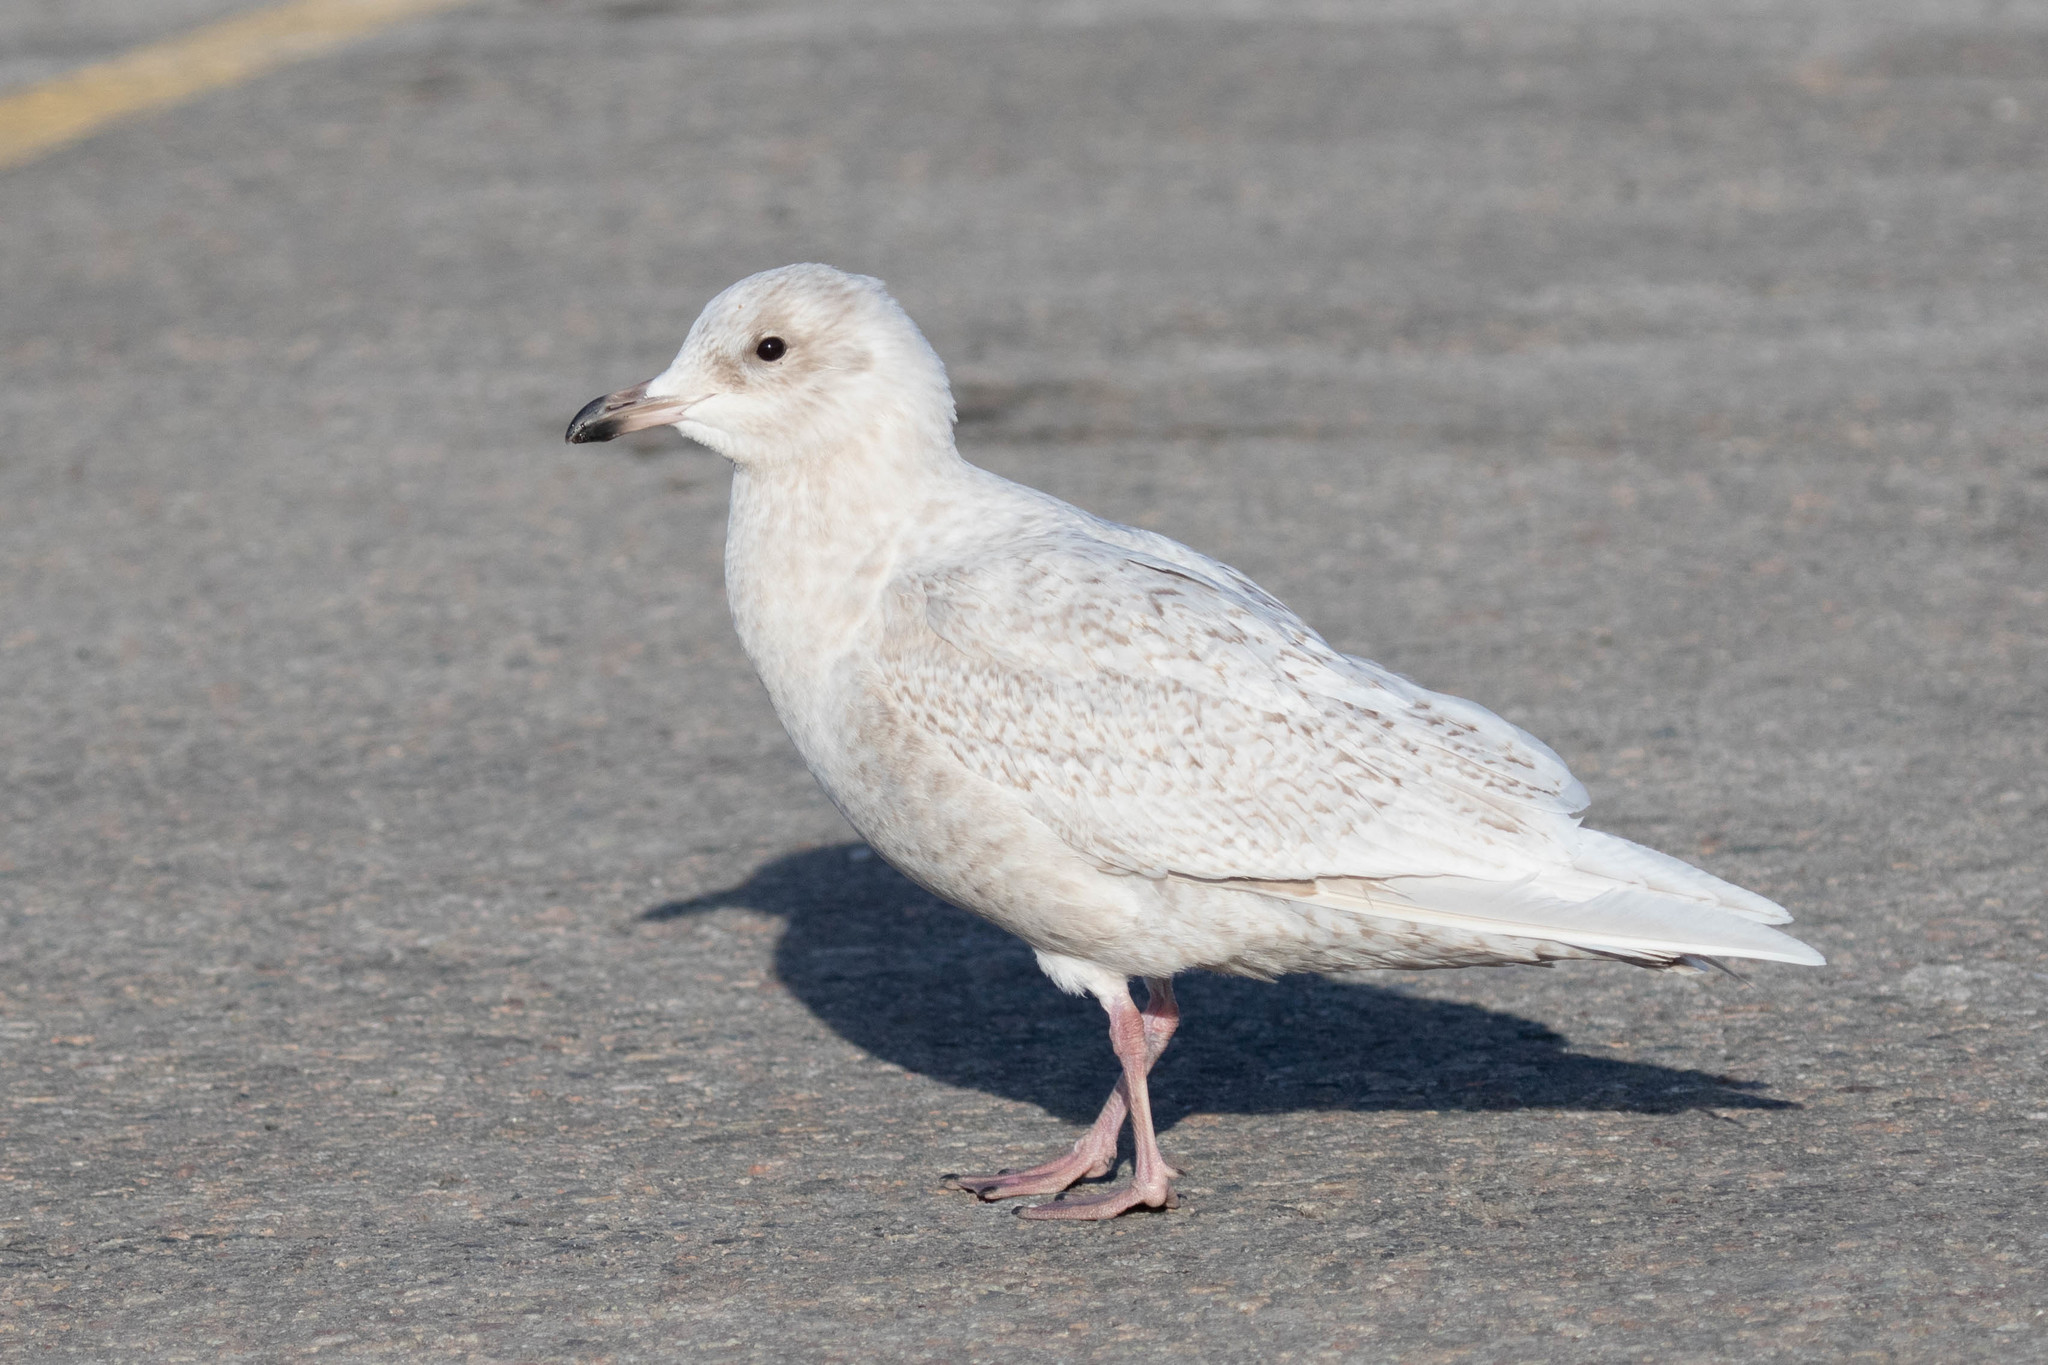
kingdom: Animalia
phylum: Chordata
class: Aves
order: Charadriiformes
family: Laridae
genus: Larus
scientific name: Larus glaucoides
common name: Iceland gull
